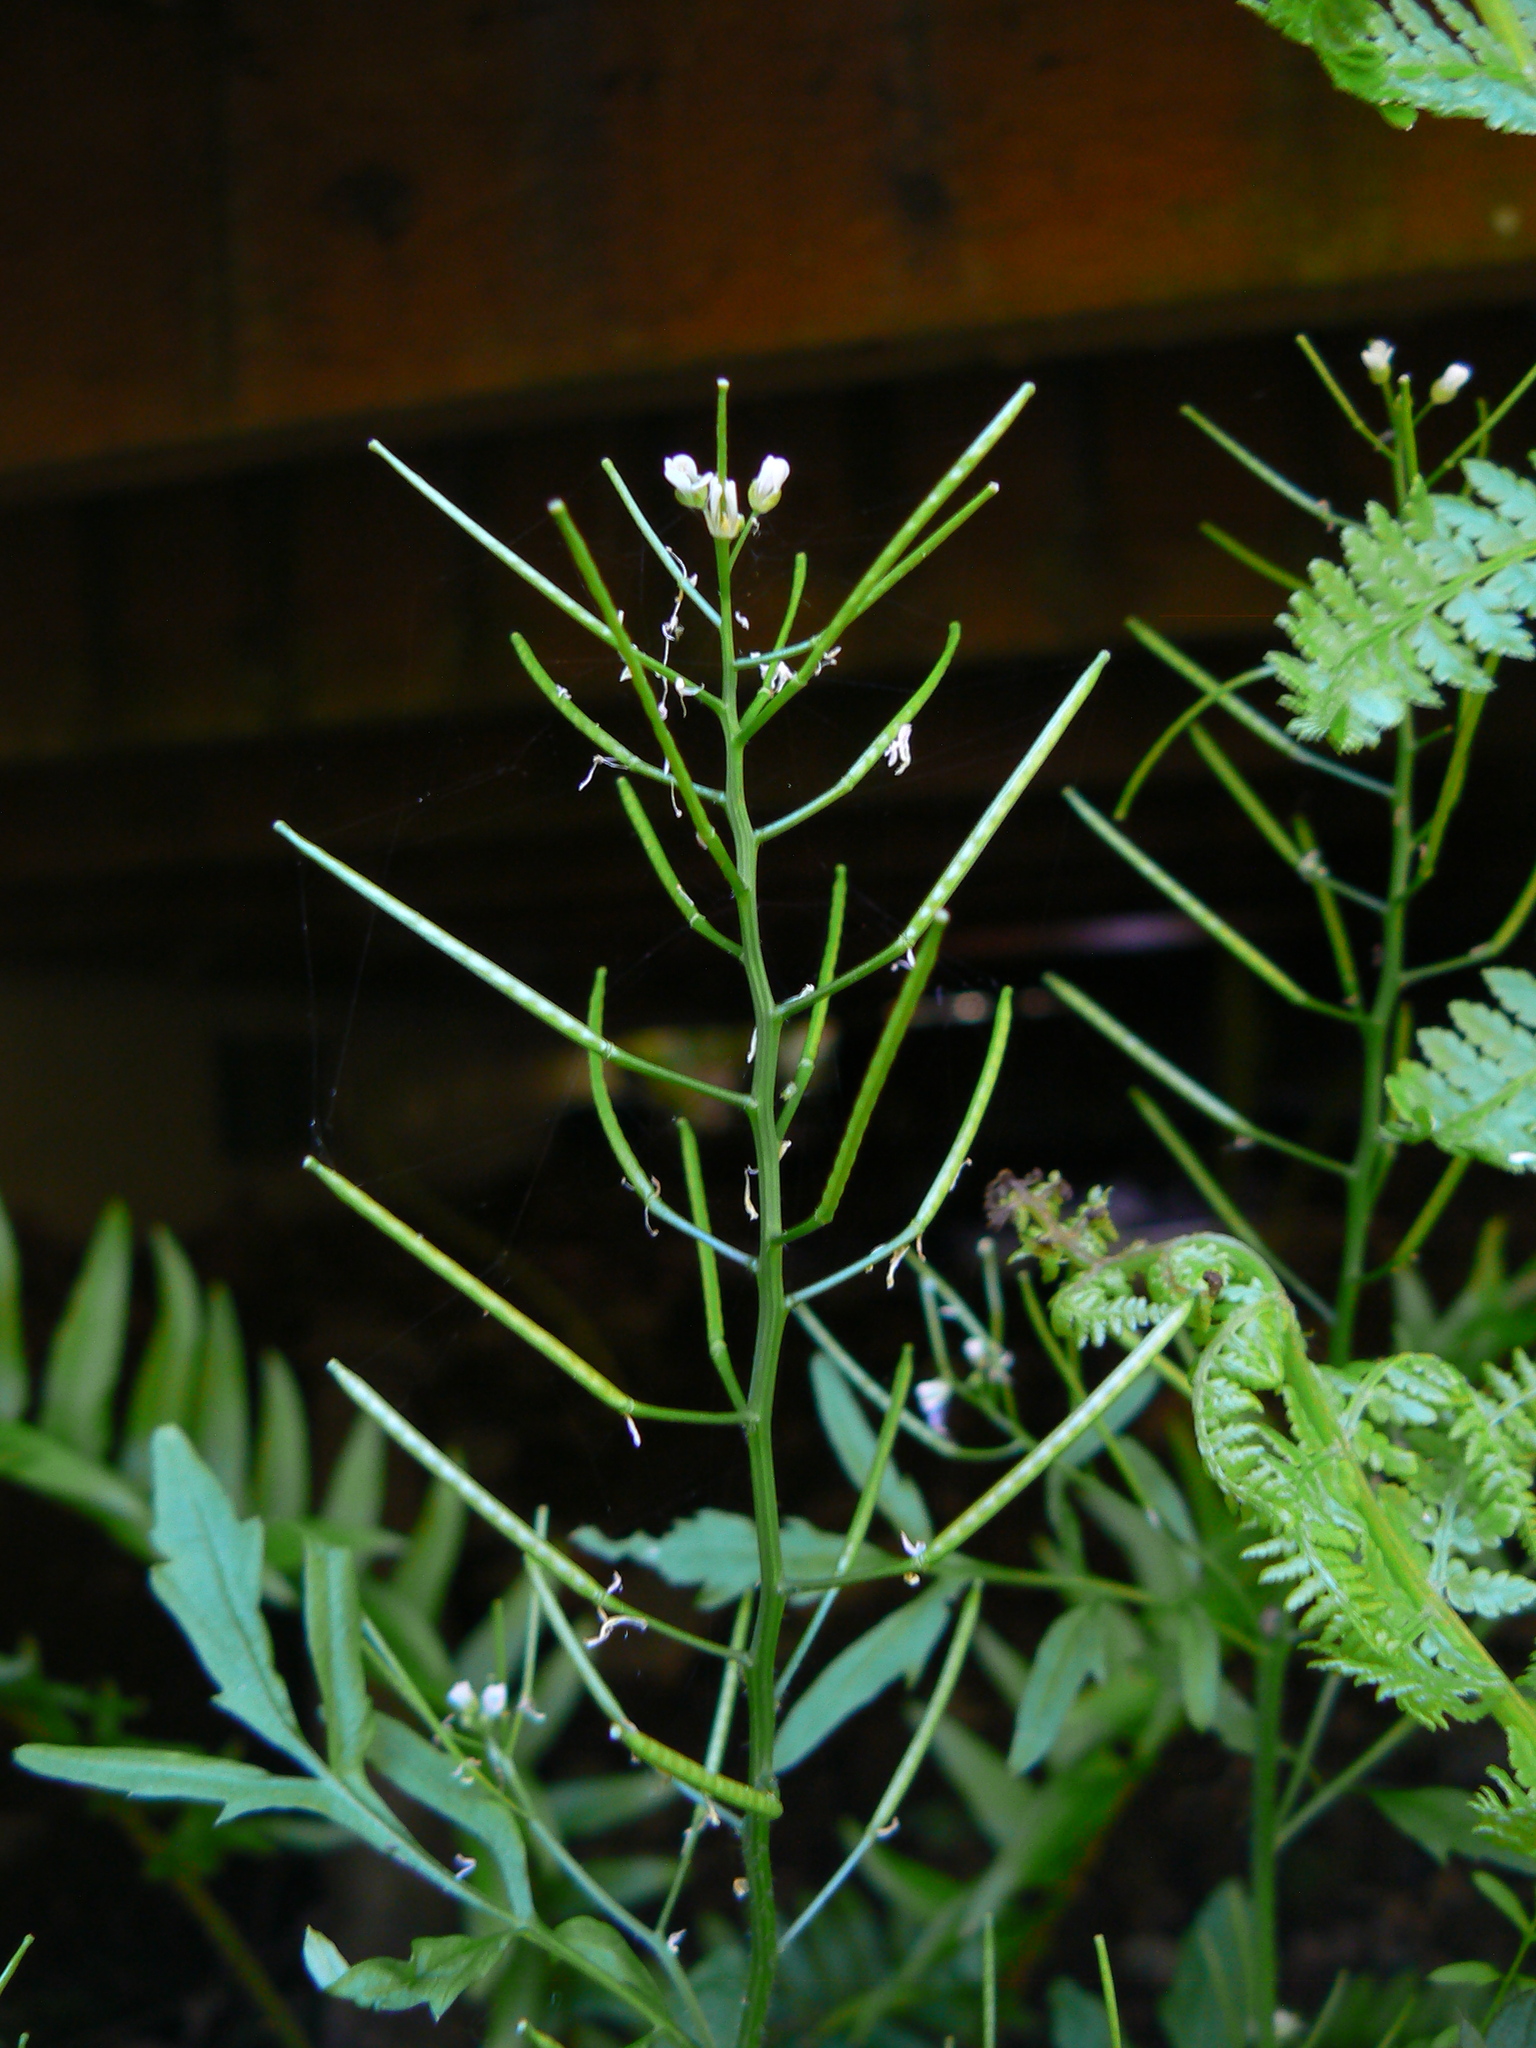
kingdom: Plantae
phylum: Tracheophyta
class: Magnoliopsida
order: Brassicales
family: Brassicaceae
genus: Cardamine
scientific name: Cardamine flexuosa
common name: Woodland bittercress
